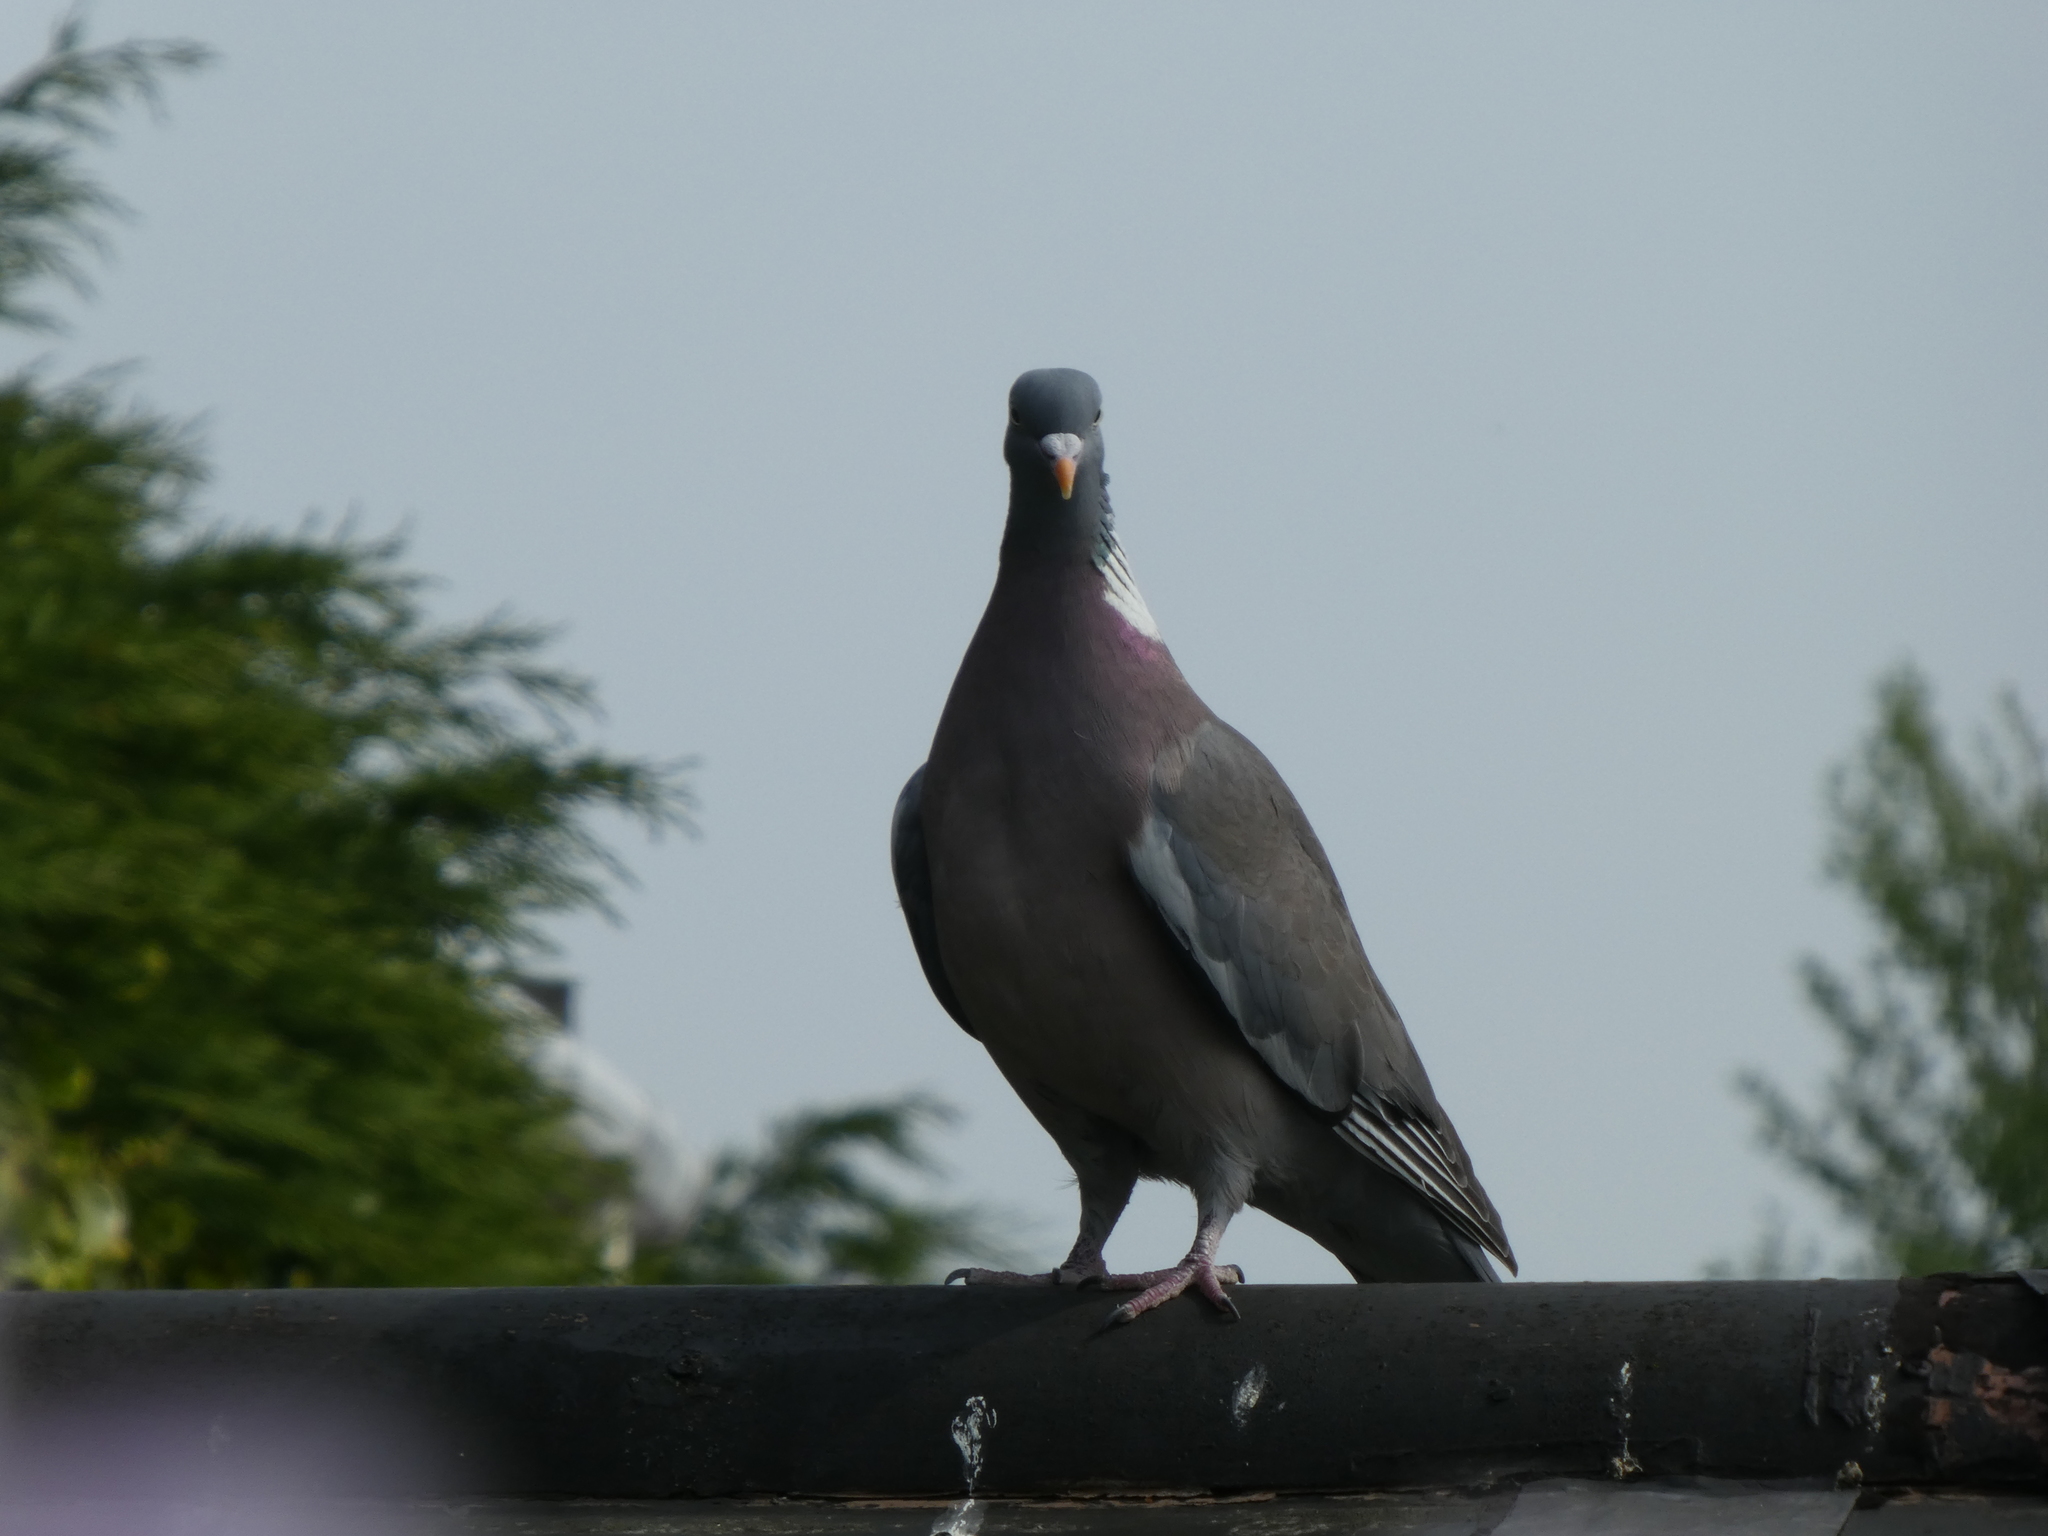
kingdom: Animalia
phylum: Chordata
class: Aves
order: Columbiformes
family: Columbidae
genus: Columba
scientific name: Columba palumbus
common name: Common wood pigeon
